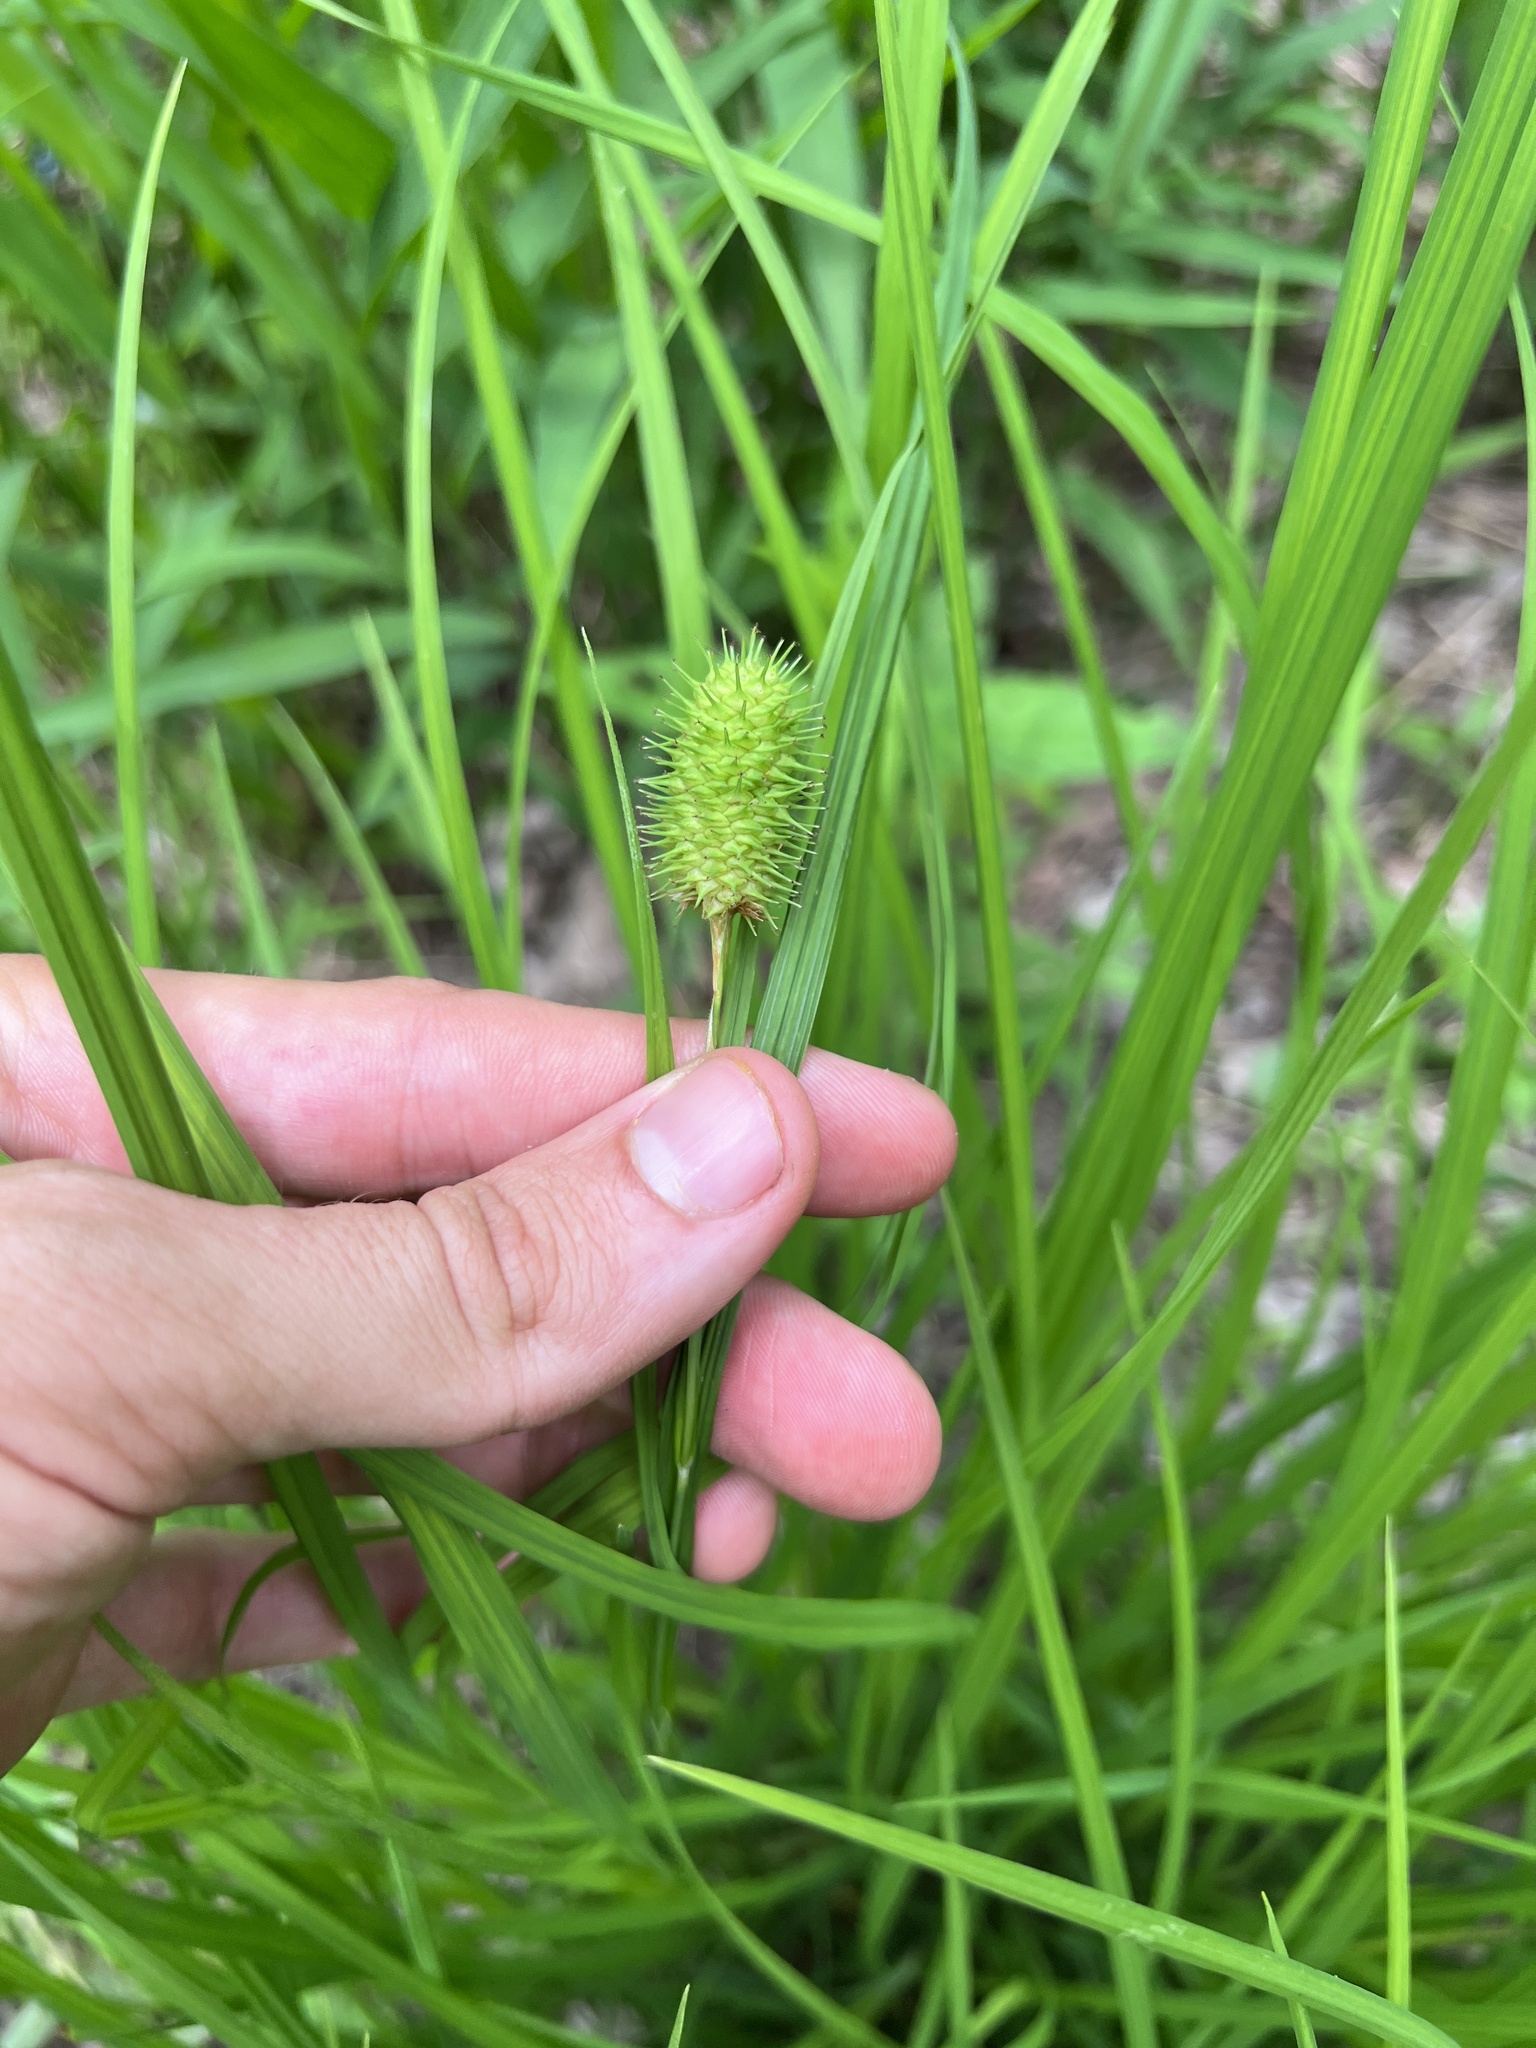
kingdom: Plantae
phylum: Tracheophyta
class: Liliopsida
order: Poales
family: Cyperaceae
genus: Carex
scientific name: Carex squarrosa
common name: Narrow-leaved cattail sedge
